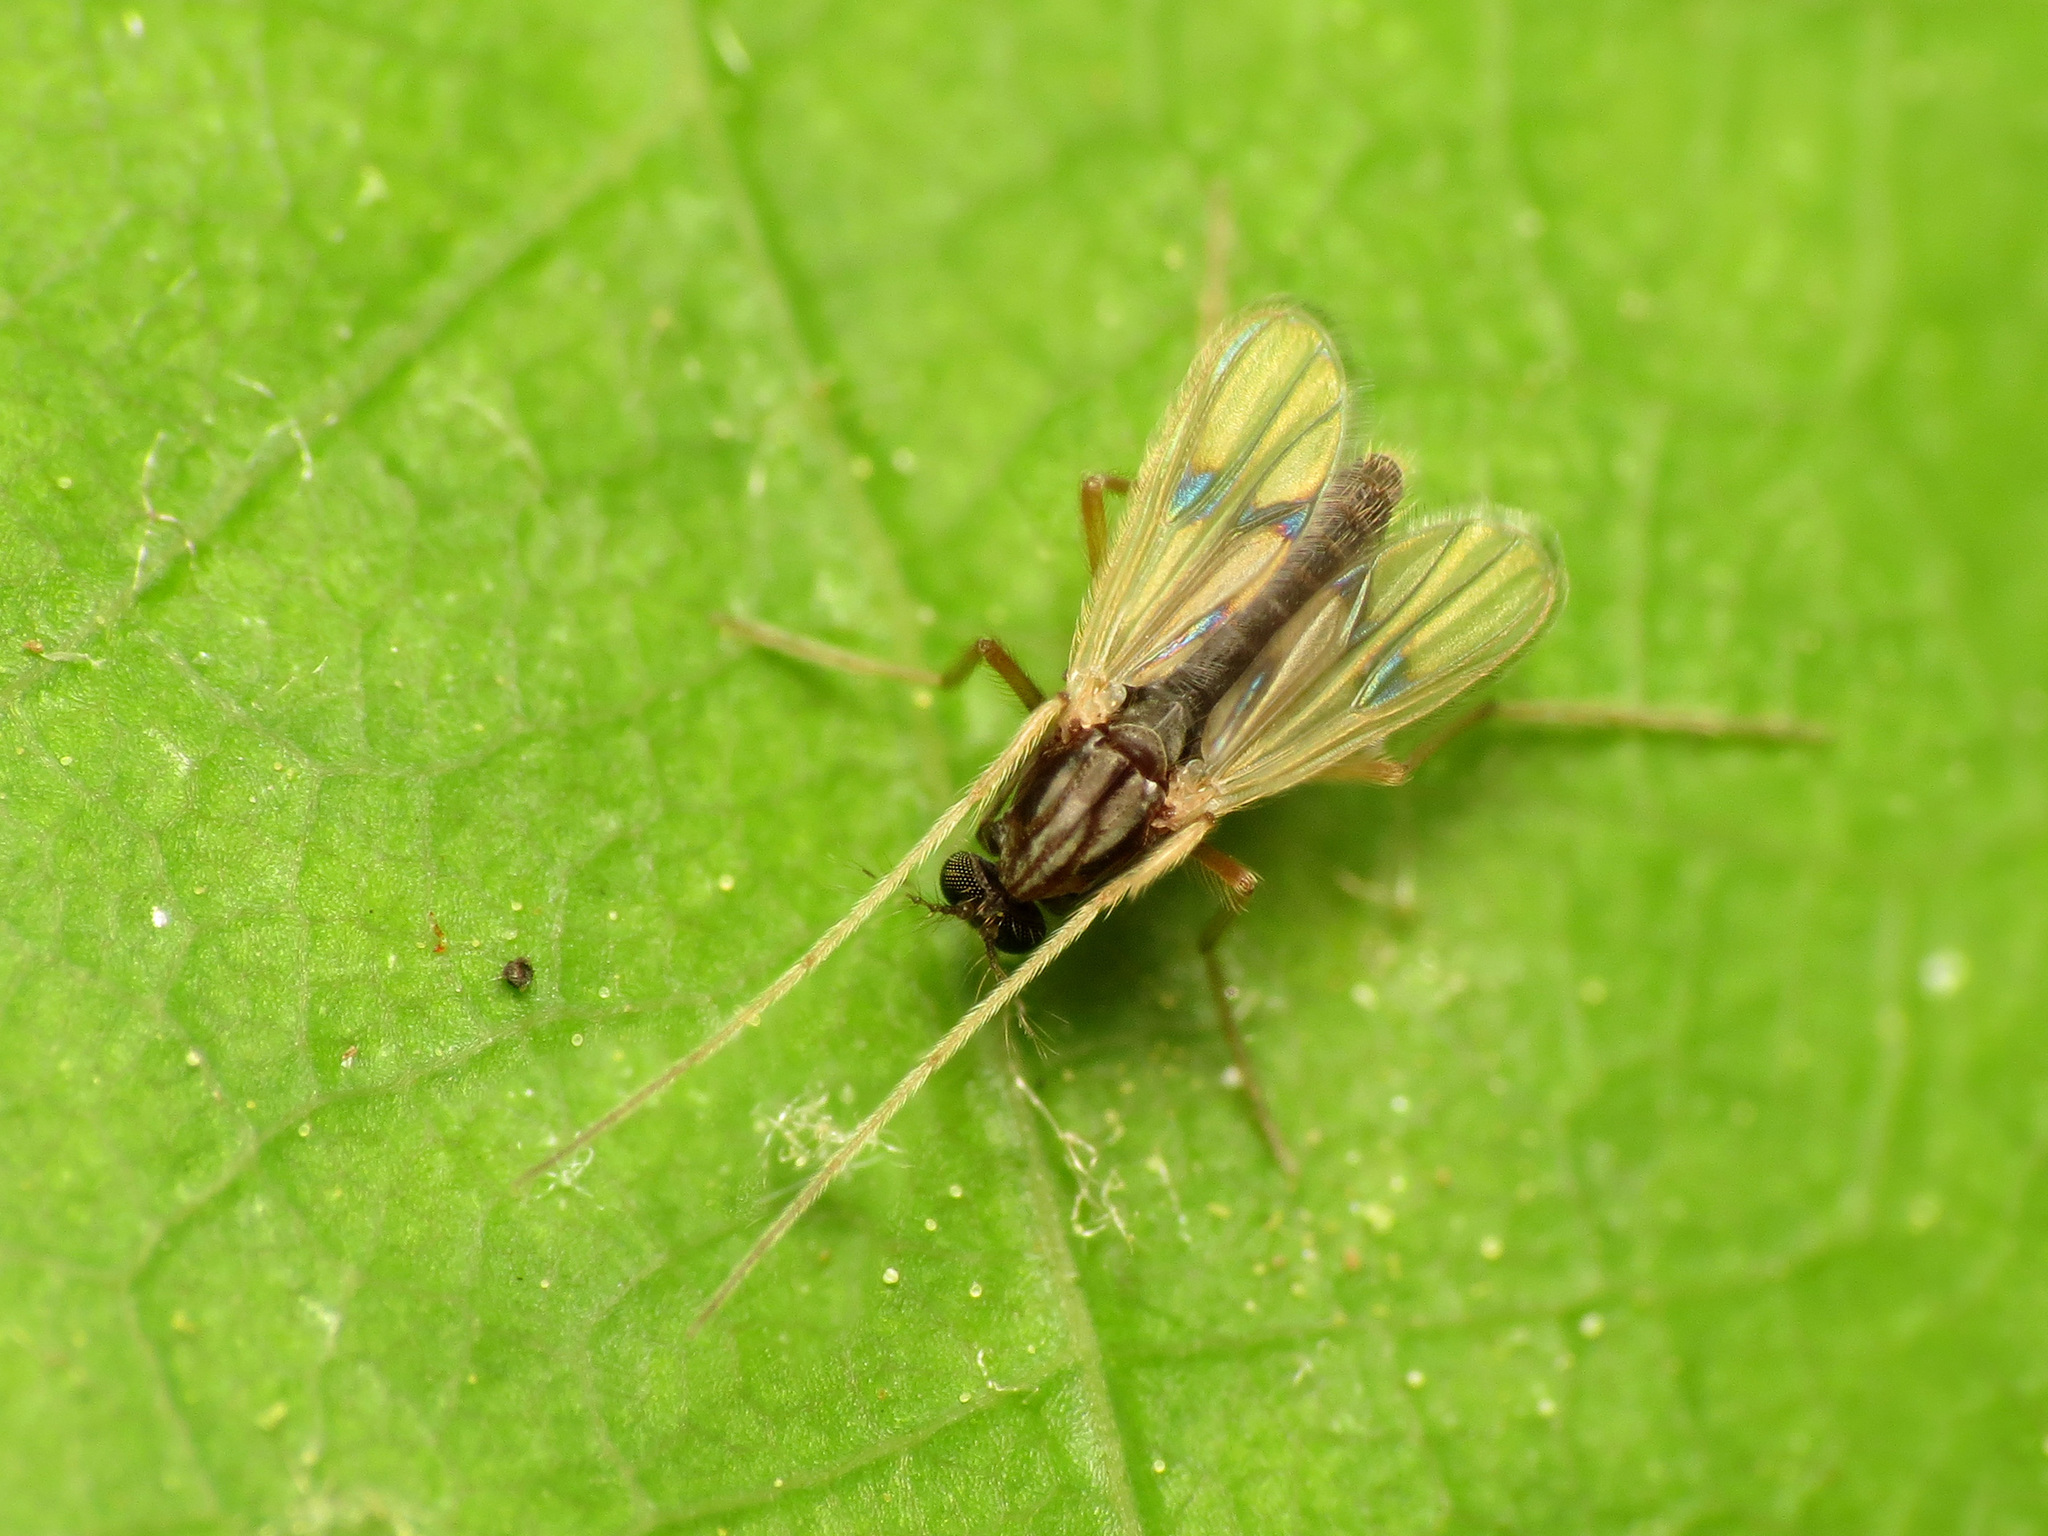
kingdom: Animalia
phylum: Arthropoda
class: Insecta
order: Diptera
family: Chironomidae
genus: Polypedilum
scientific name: Polypedilum griseopunctatum
